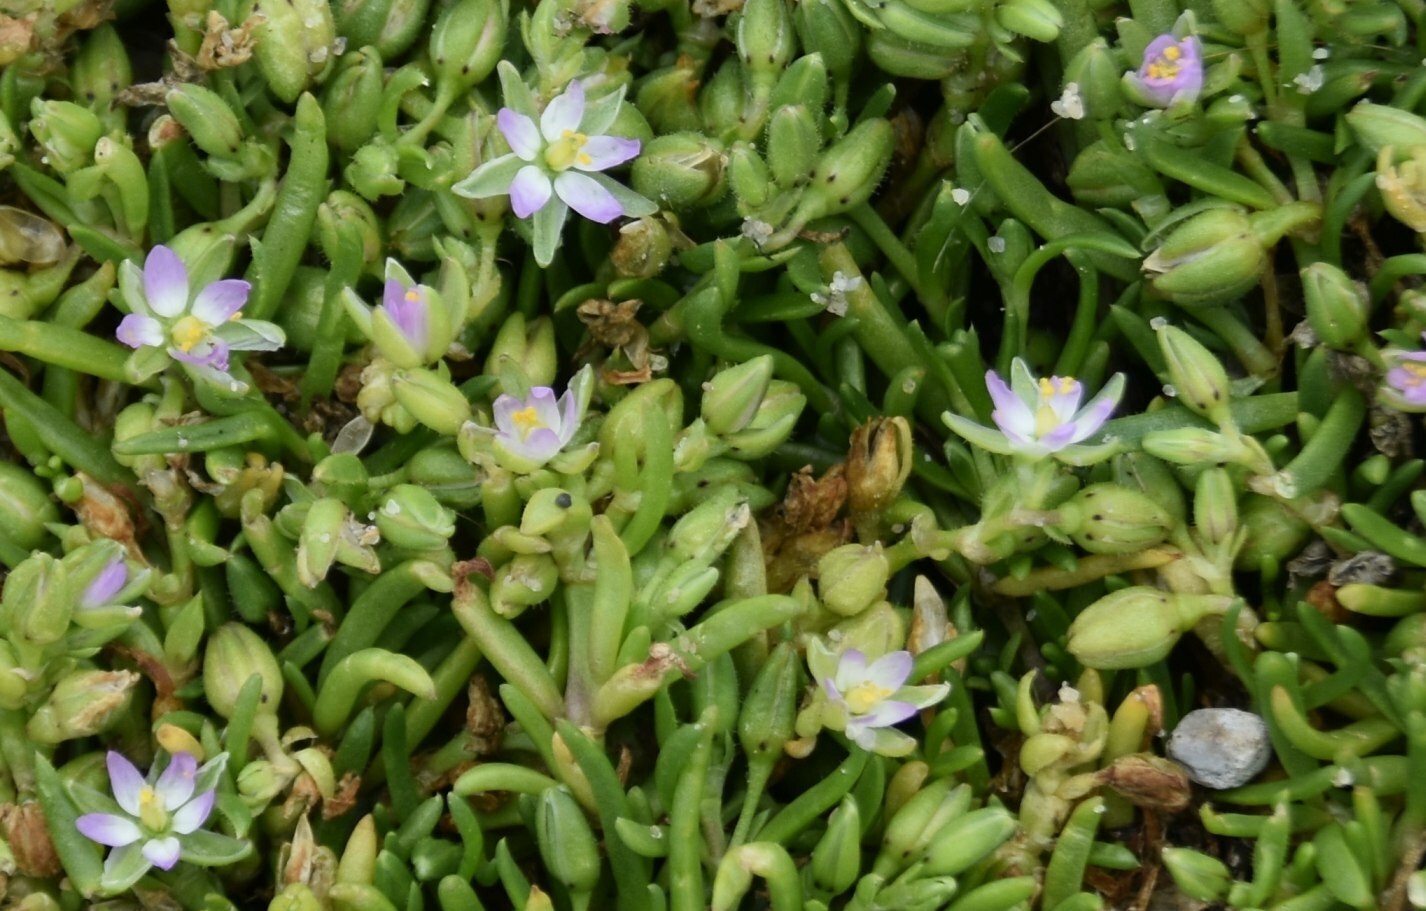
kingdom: Plantae
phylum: Tracheophyta
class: Magnoliopsida
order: Caryophyllales
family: Caryophyllaceae
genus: Spergularia
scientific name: Spergularia marina
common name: Lesser sea-spurrey
